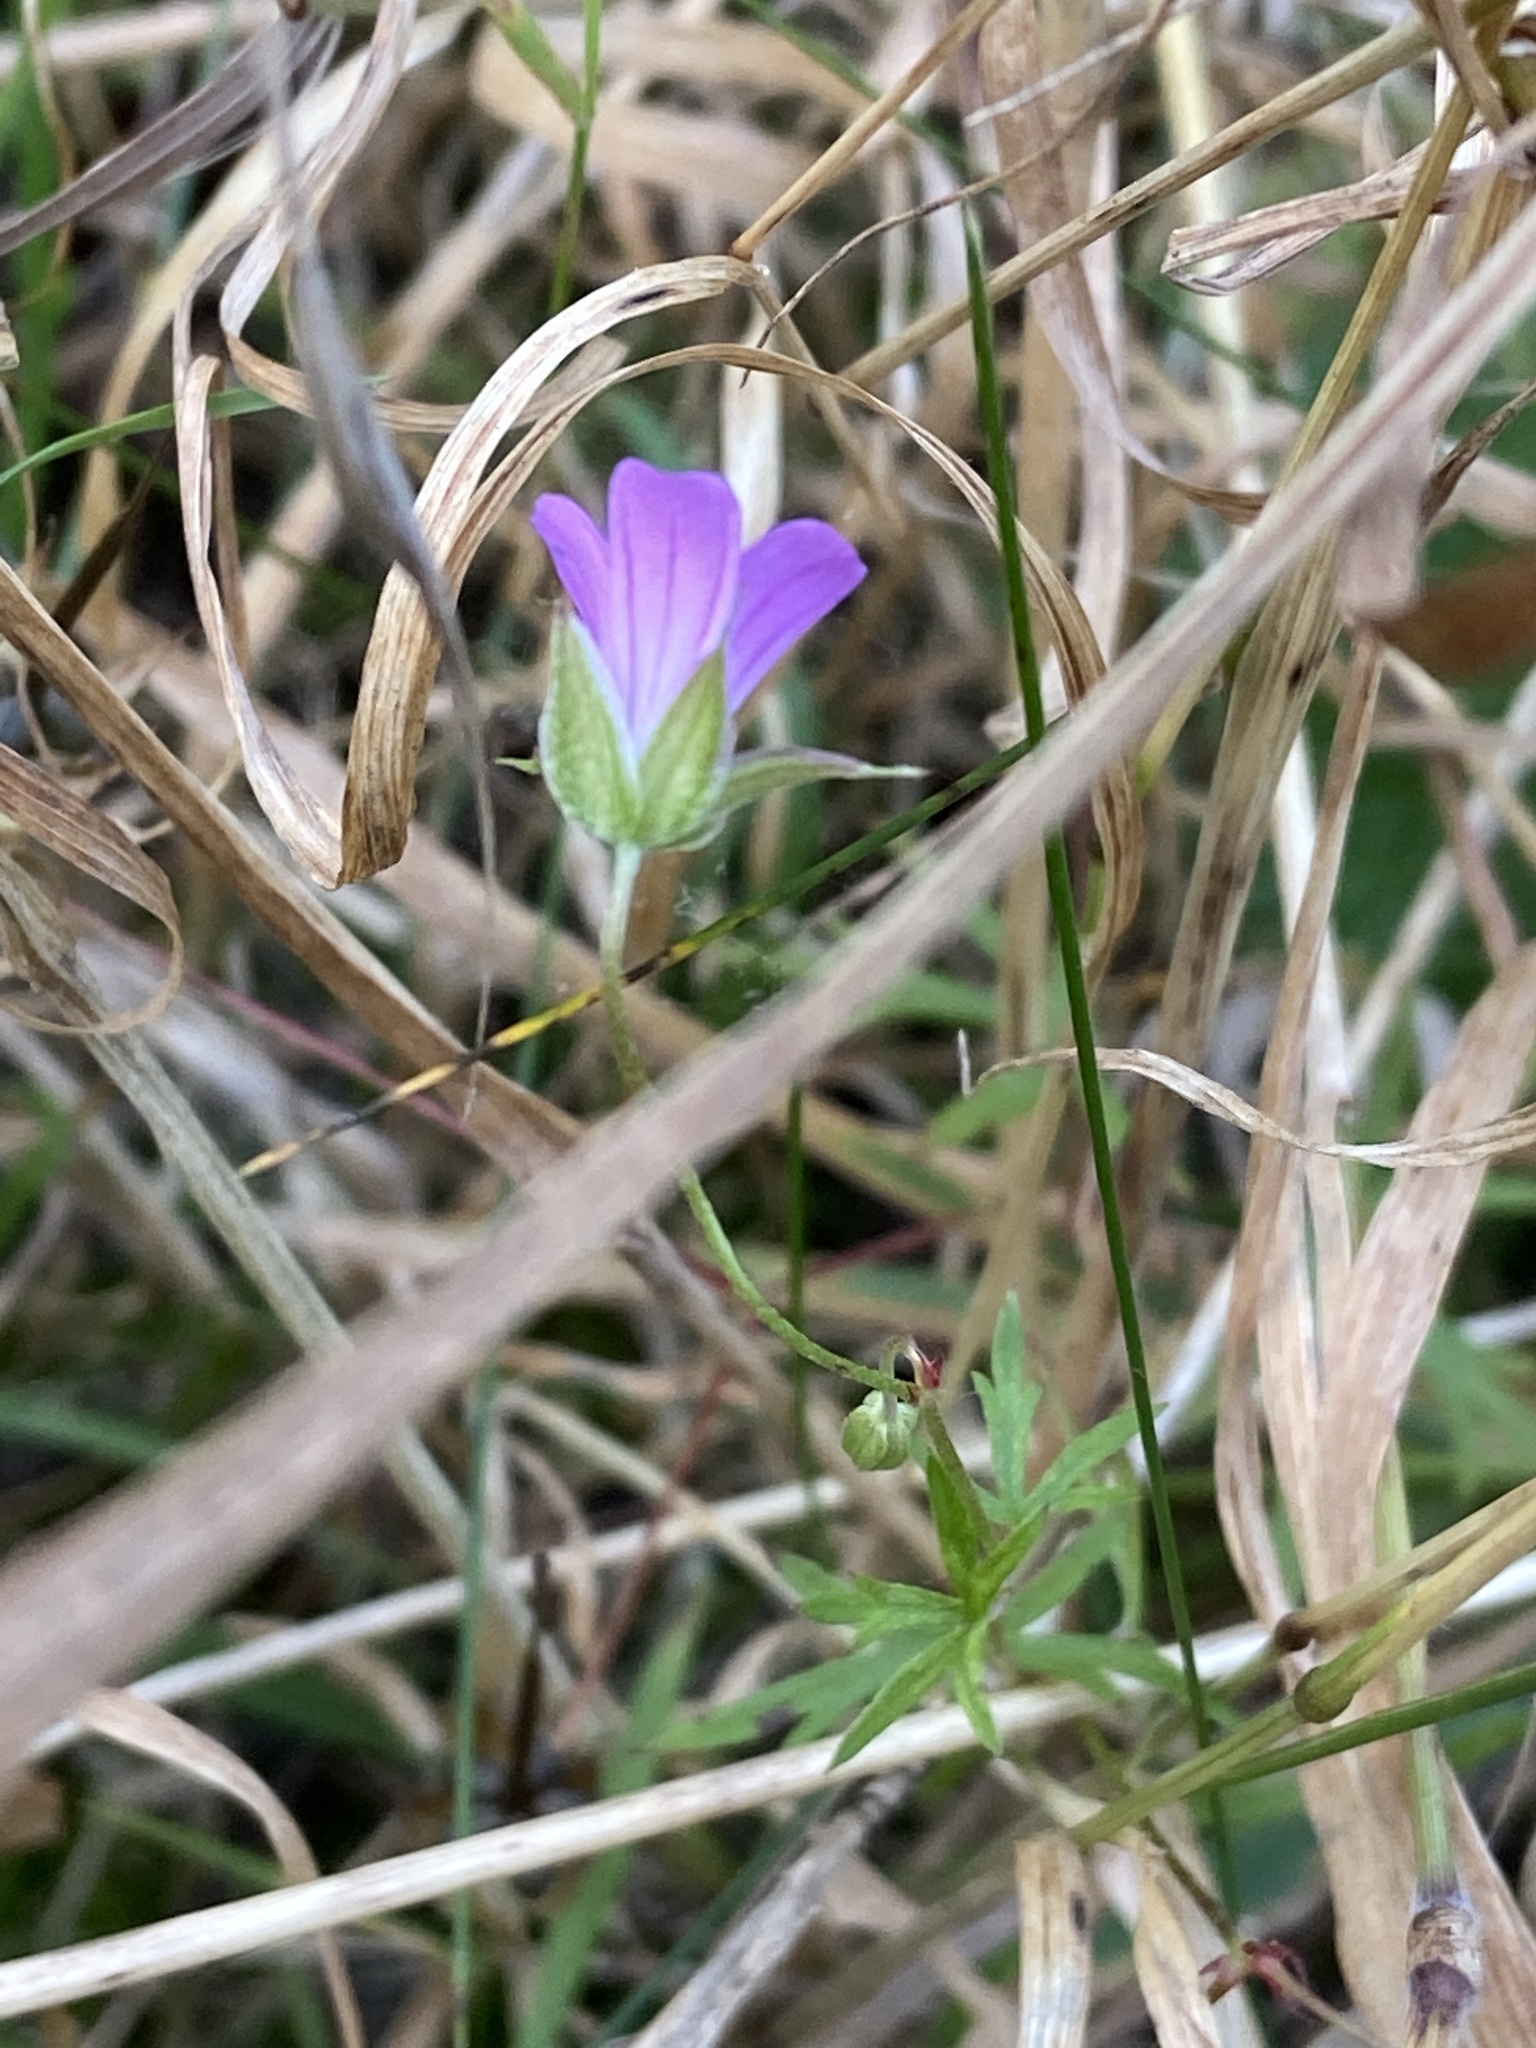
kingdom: Plantae
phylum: Tracheophyta
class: Magnoliopsida
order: Geraniales
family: Geraniaceae
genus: Geranium
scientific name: Geranium columbinum
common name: Long-stalked crane's-bill
